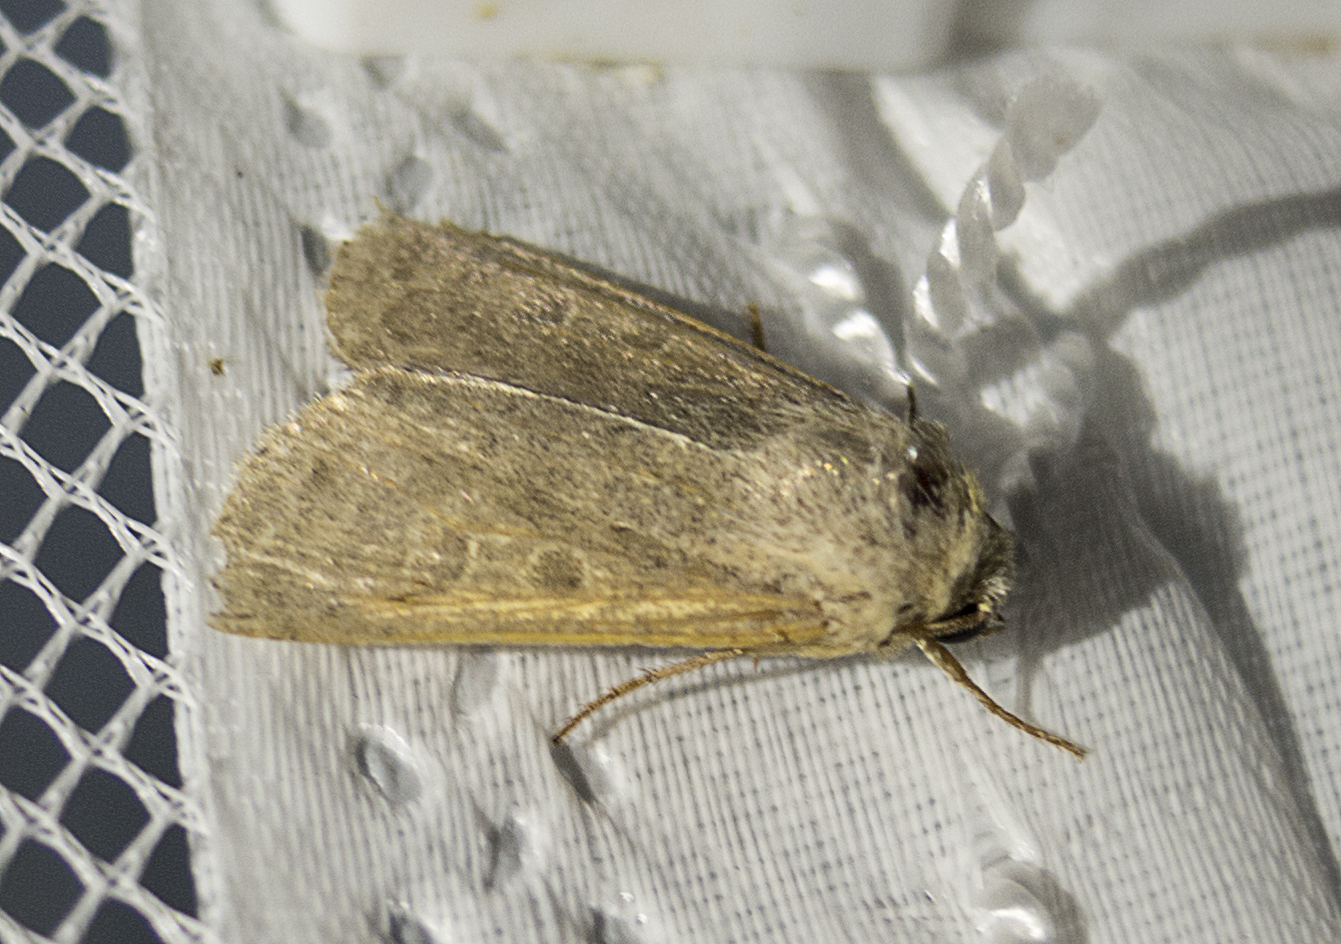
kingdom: Animalia
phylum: Arthropoda
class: Insecta
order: Lepidoptera
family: Noctuidae
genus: Hoplodrina
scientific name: Hoplodrina
